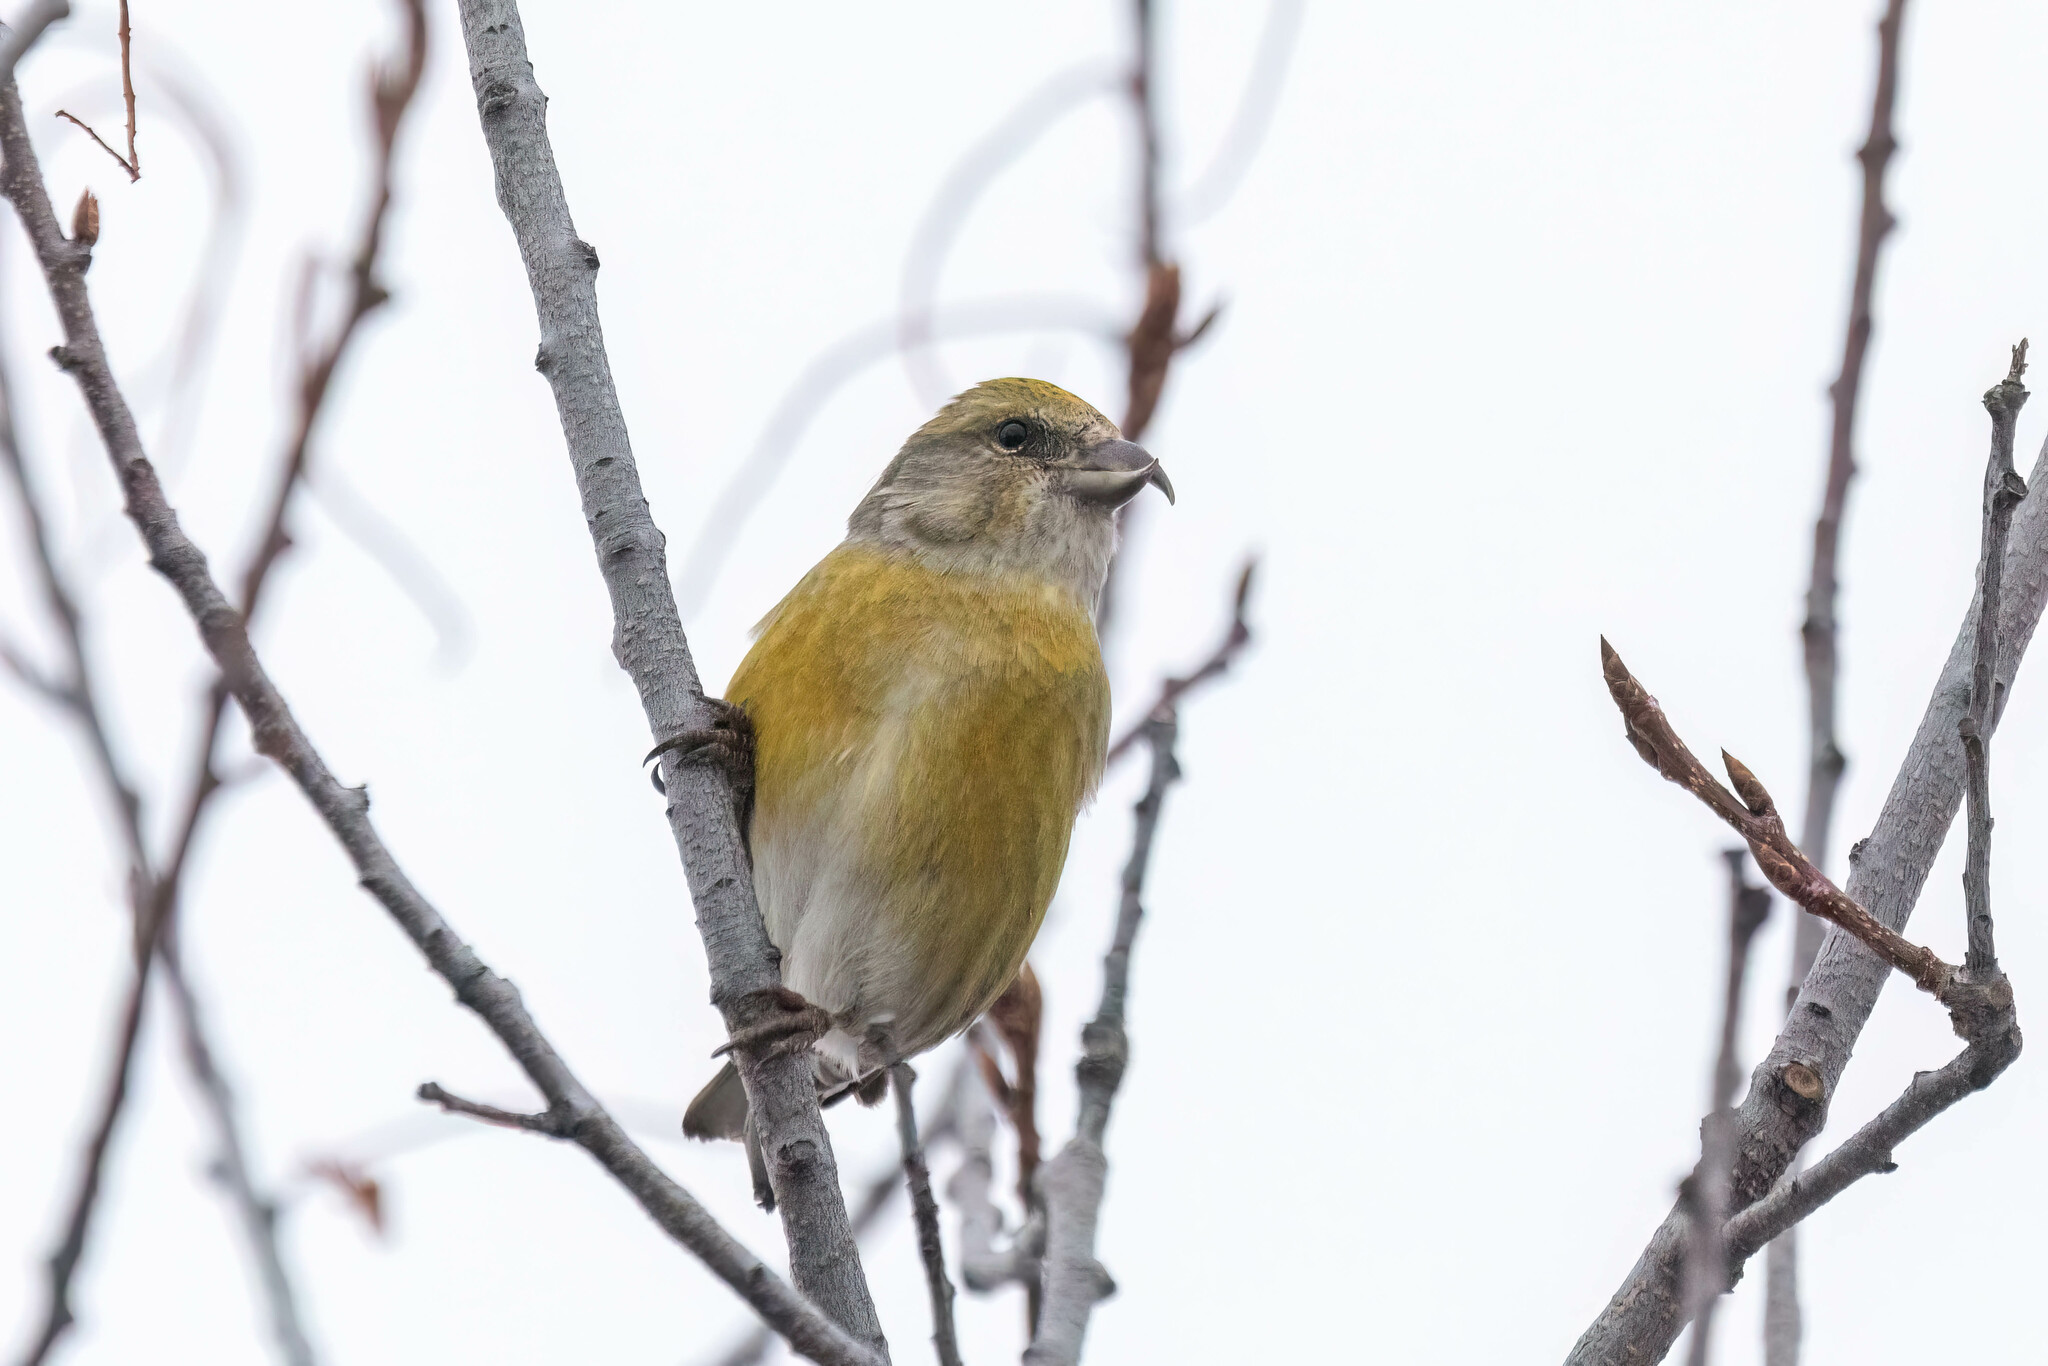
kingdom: Animalia
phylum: Chordata
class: Aves
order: Passeriformes
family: Fringillidae
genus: Loxia
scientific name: Loxia curvirostra
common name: Red crossbill
